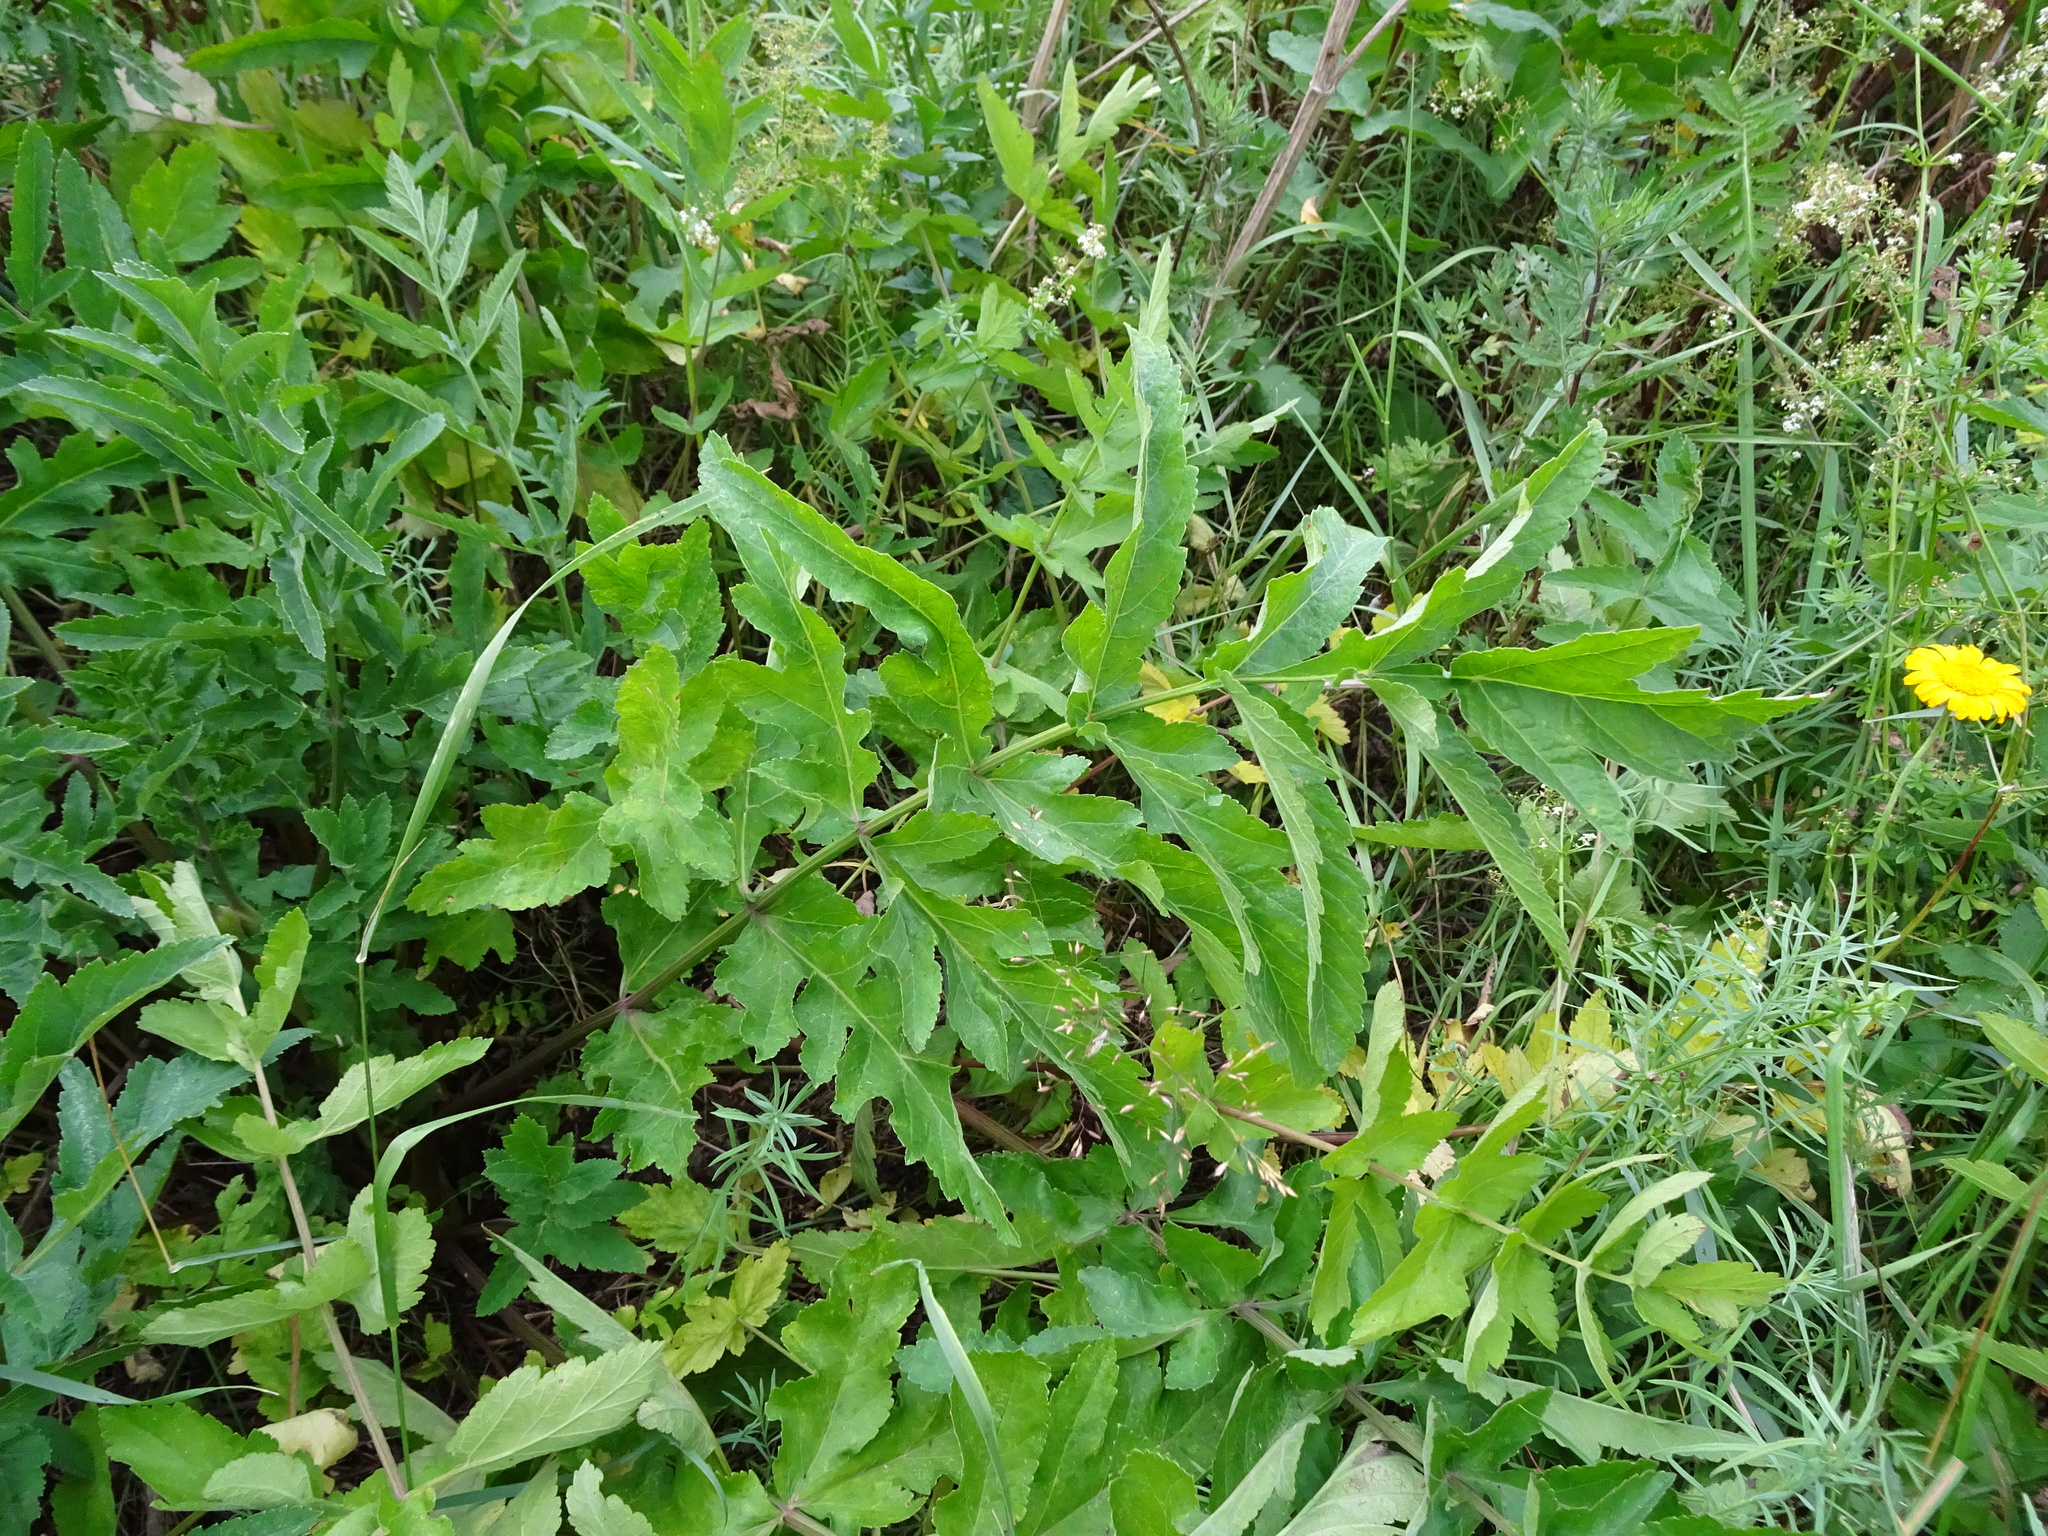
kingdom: Plantae
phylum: Tracheophyta
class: Magnoliopsida
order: Apiales
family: Apiaceae
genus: Heracleum
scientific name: Heracleum sphondylium
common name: Hogweed
